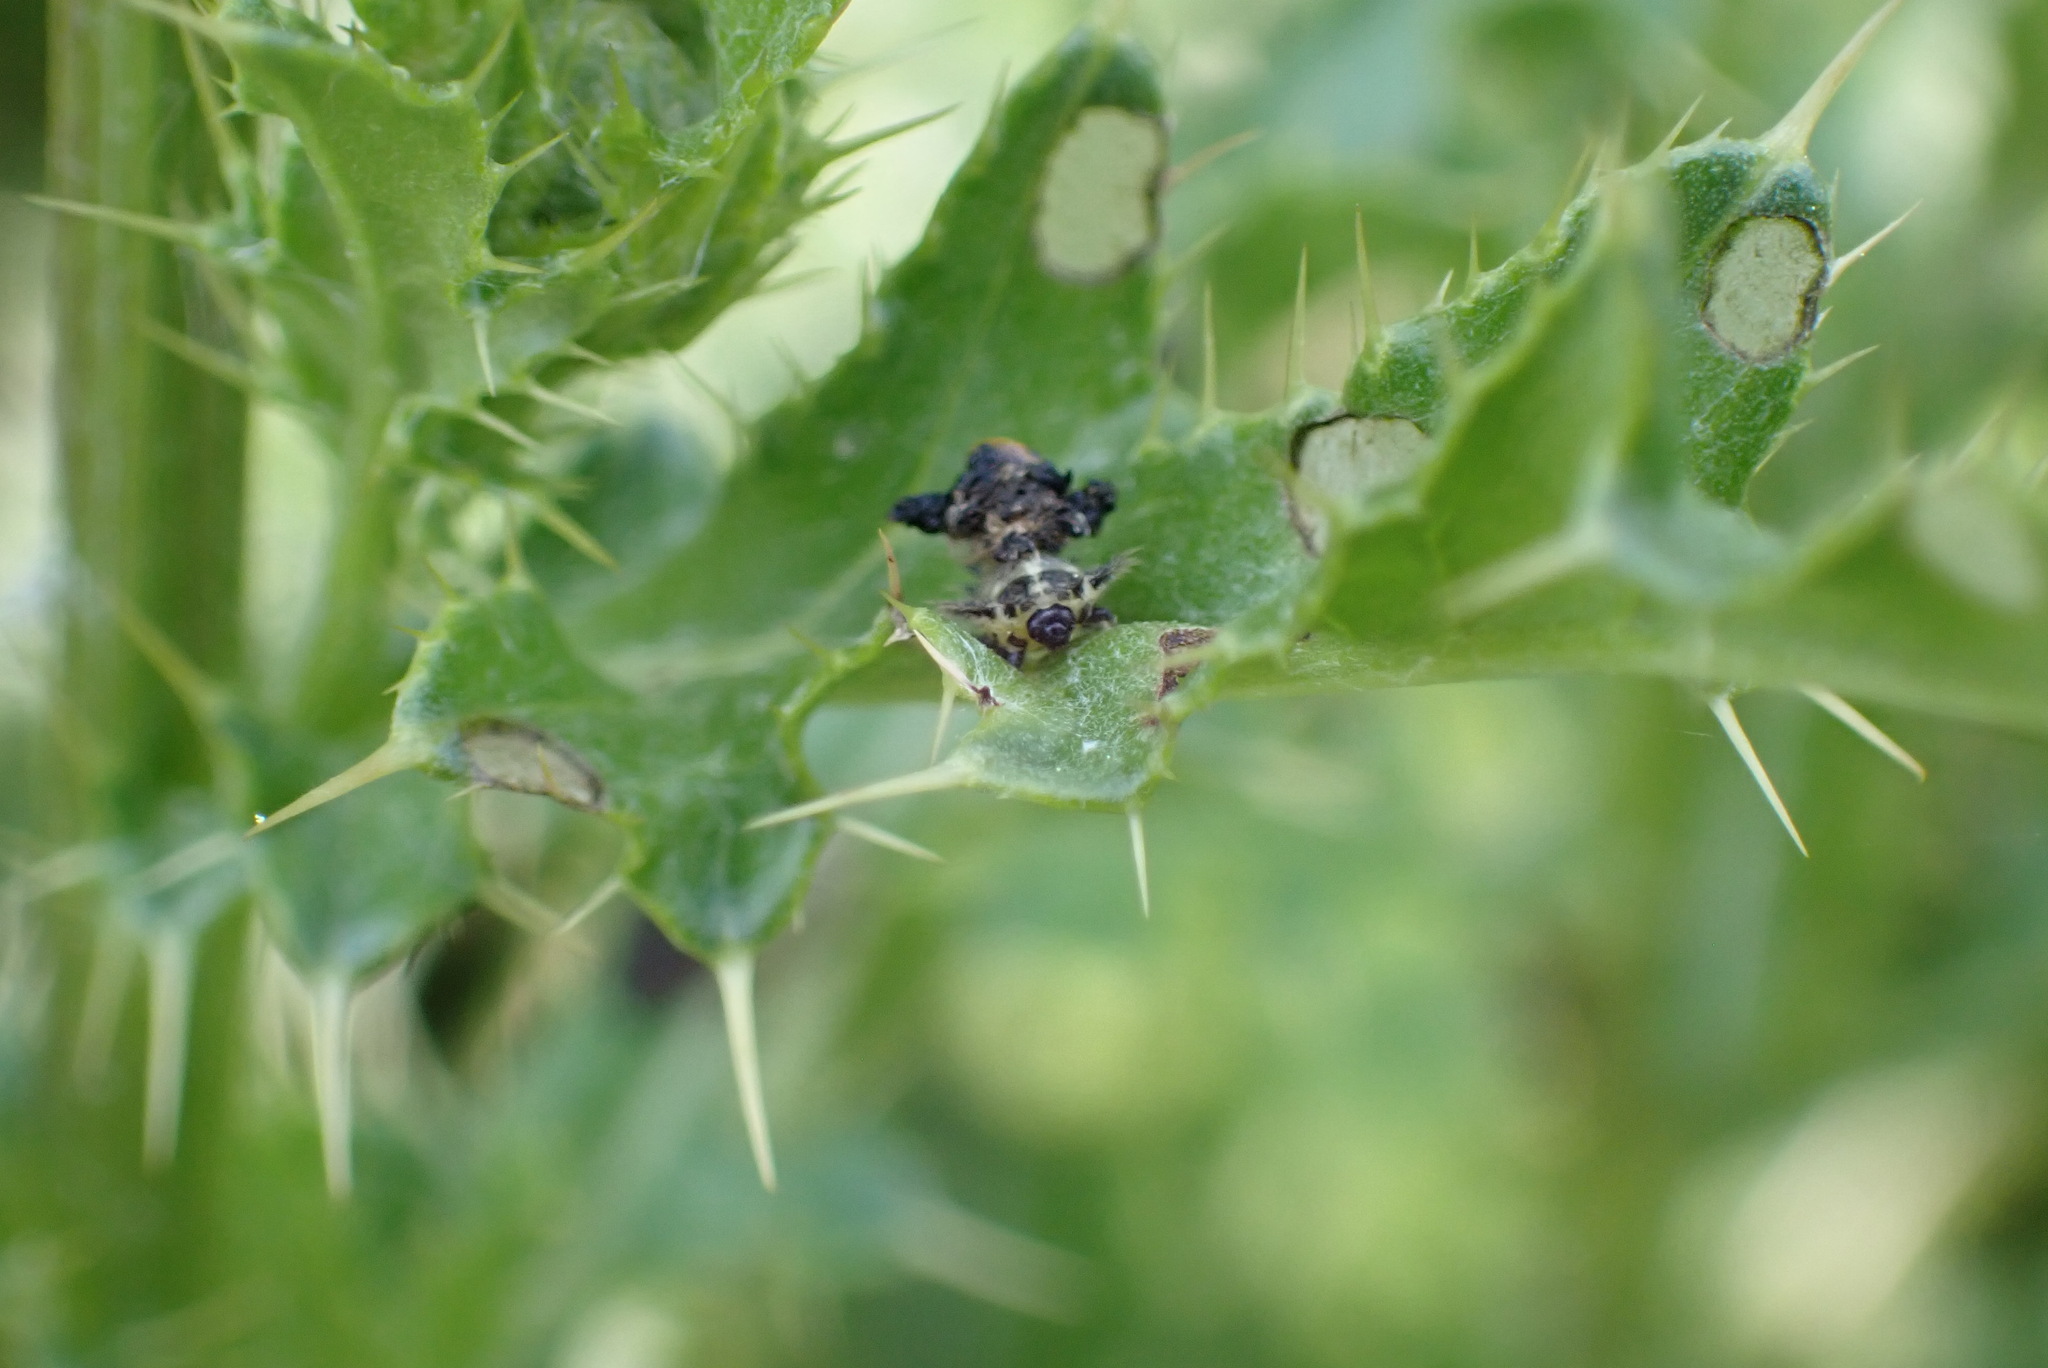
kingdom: Animalia
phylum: Arthropoda
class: Insecta
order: Coleoptera
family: Chrysomelidae
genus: Cassida
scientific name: Cassida rubiginosa
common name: Thistle tortoise beetle
